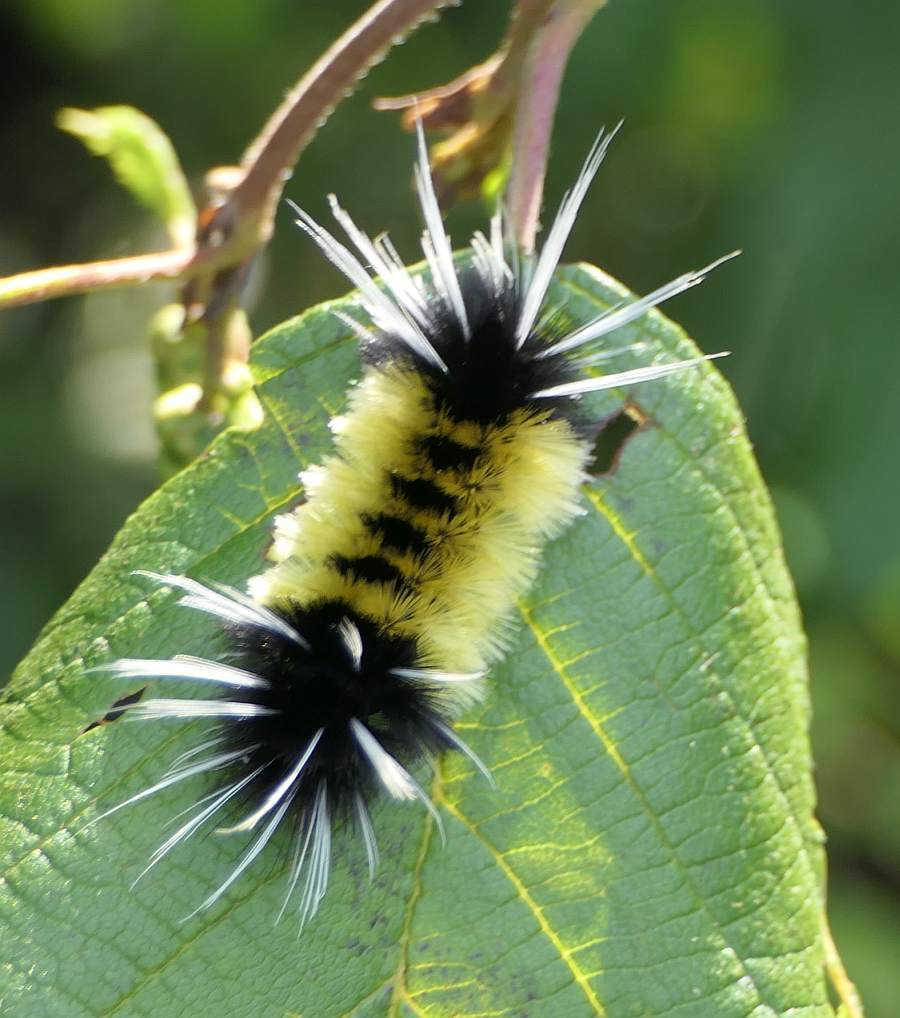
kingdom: Animalia
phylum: Arthropoda
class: Insecta
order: Lepidoptera
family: Erebidae
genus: Lophocampa
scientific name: Lophocampa maculata
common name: Spotted tussock moth
